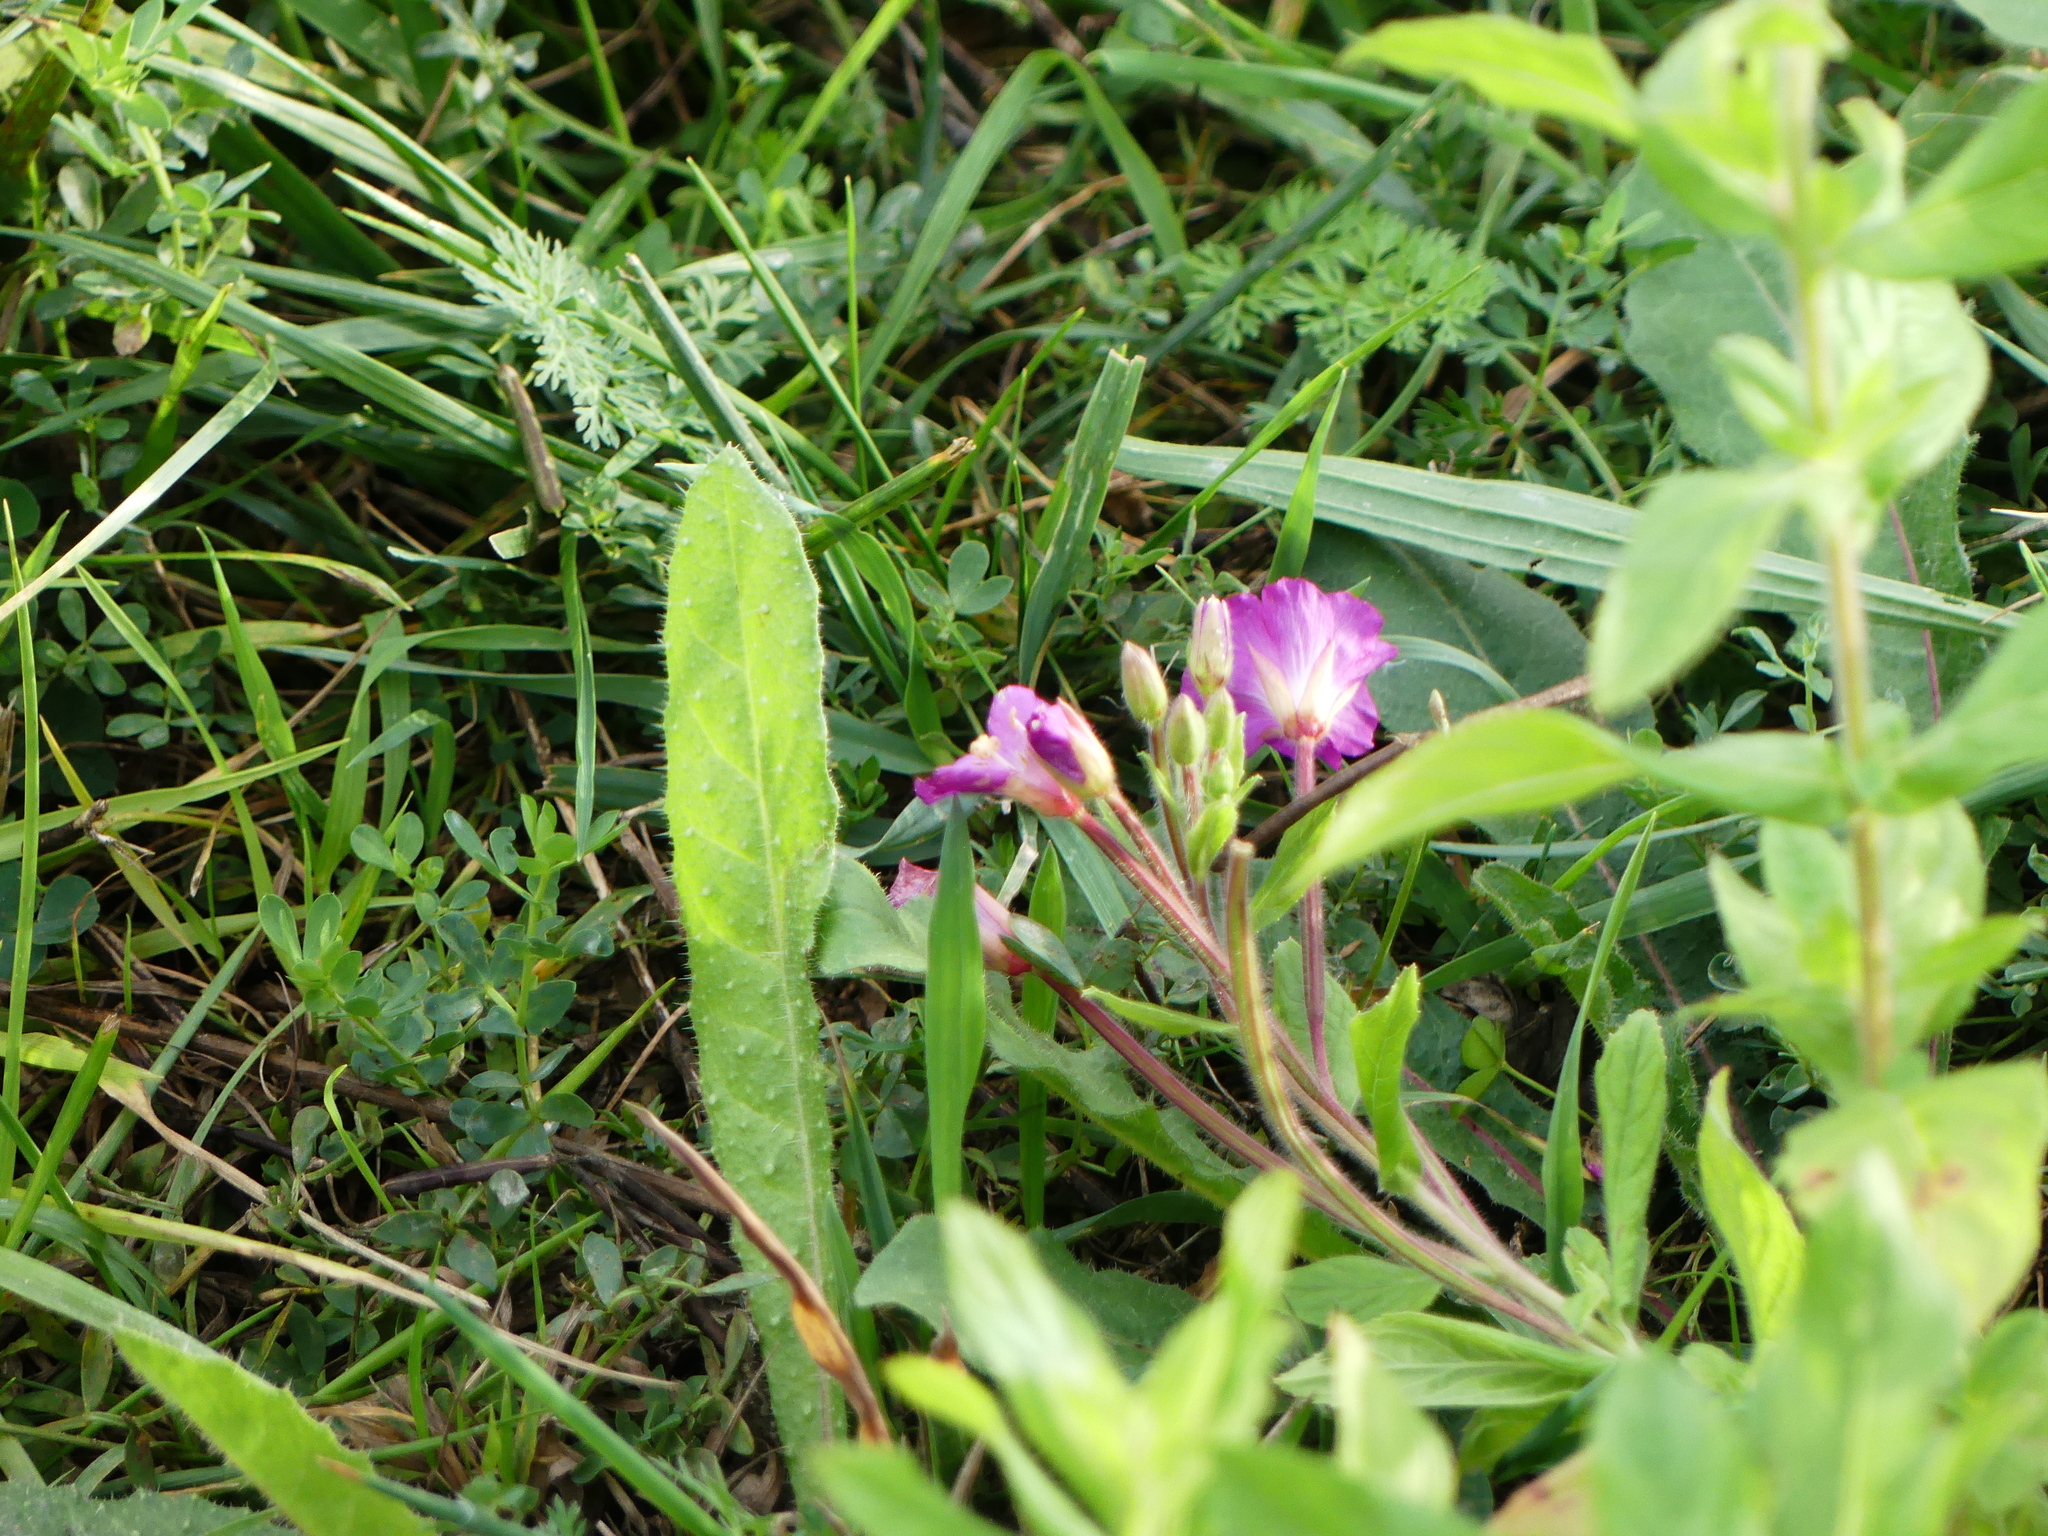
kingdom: Plantae
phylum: Tracheophyta
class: Magnoliopsida
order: Myrtales
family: Onagraceae
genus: Epilobium
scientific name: Epilobium hirsutum
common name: Great willowherb
